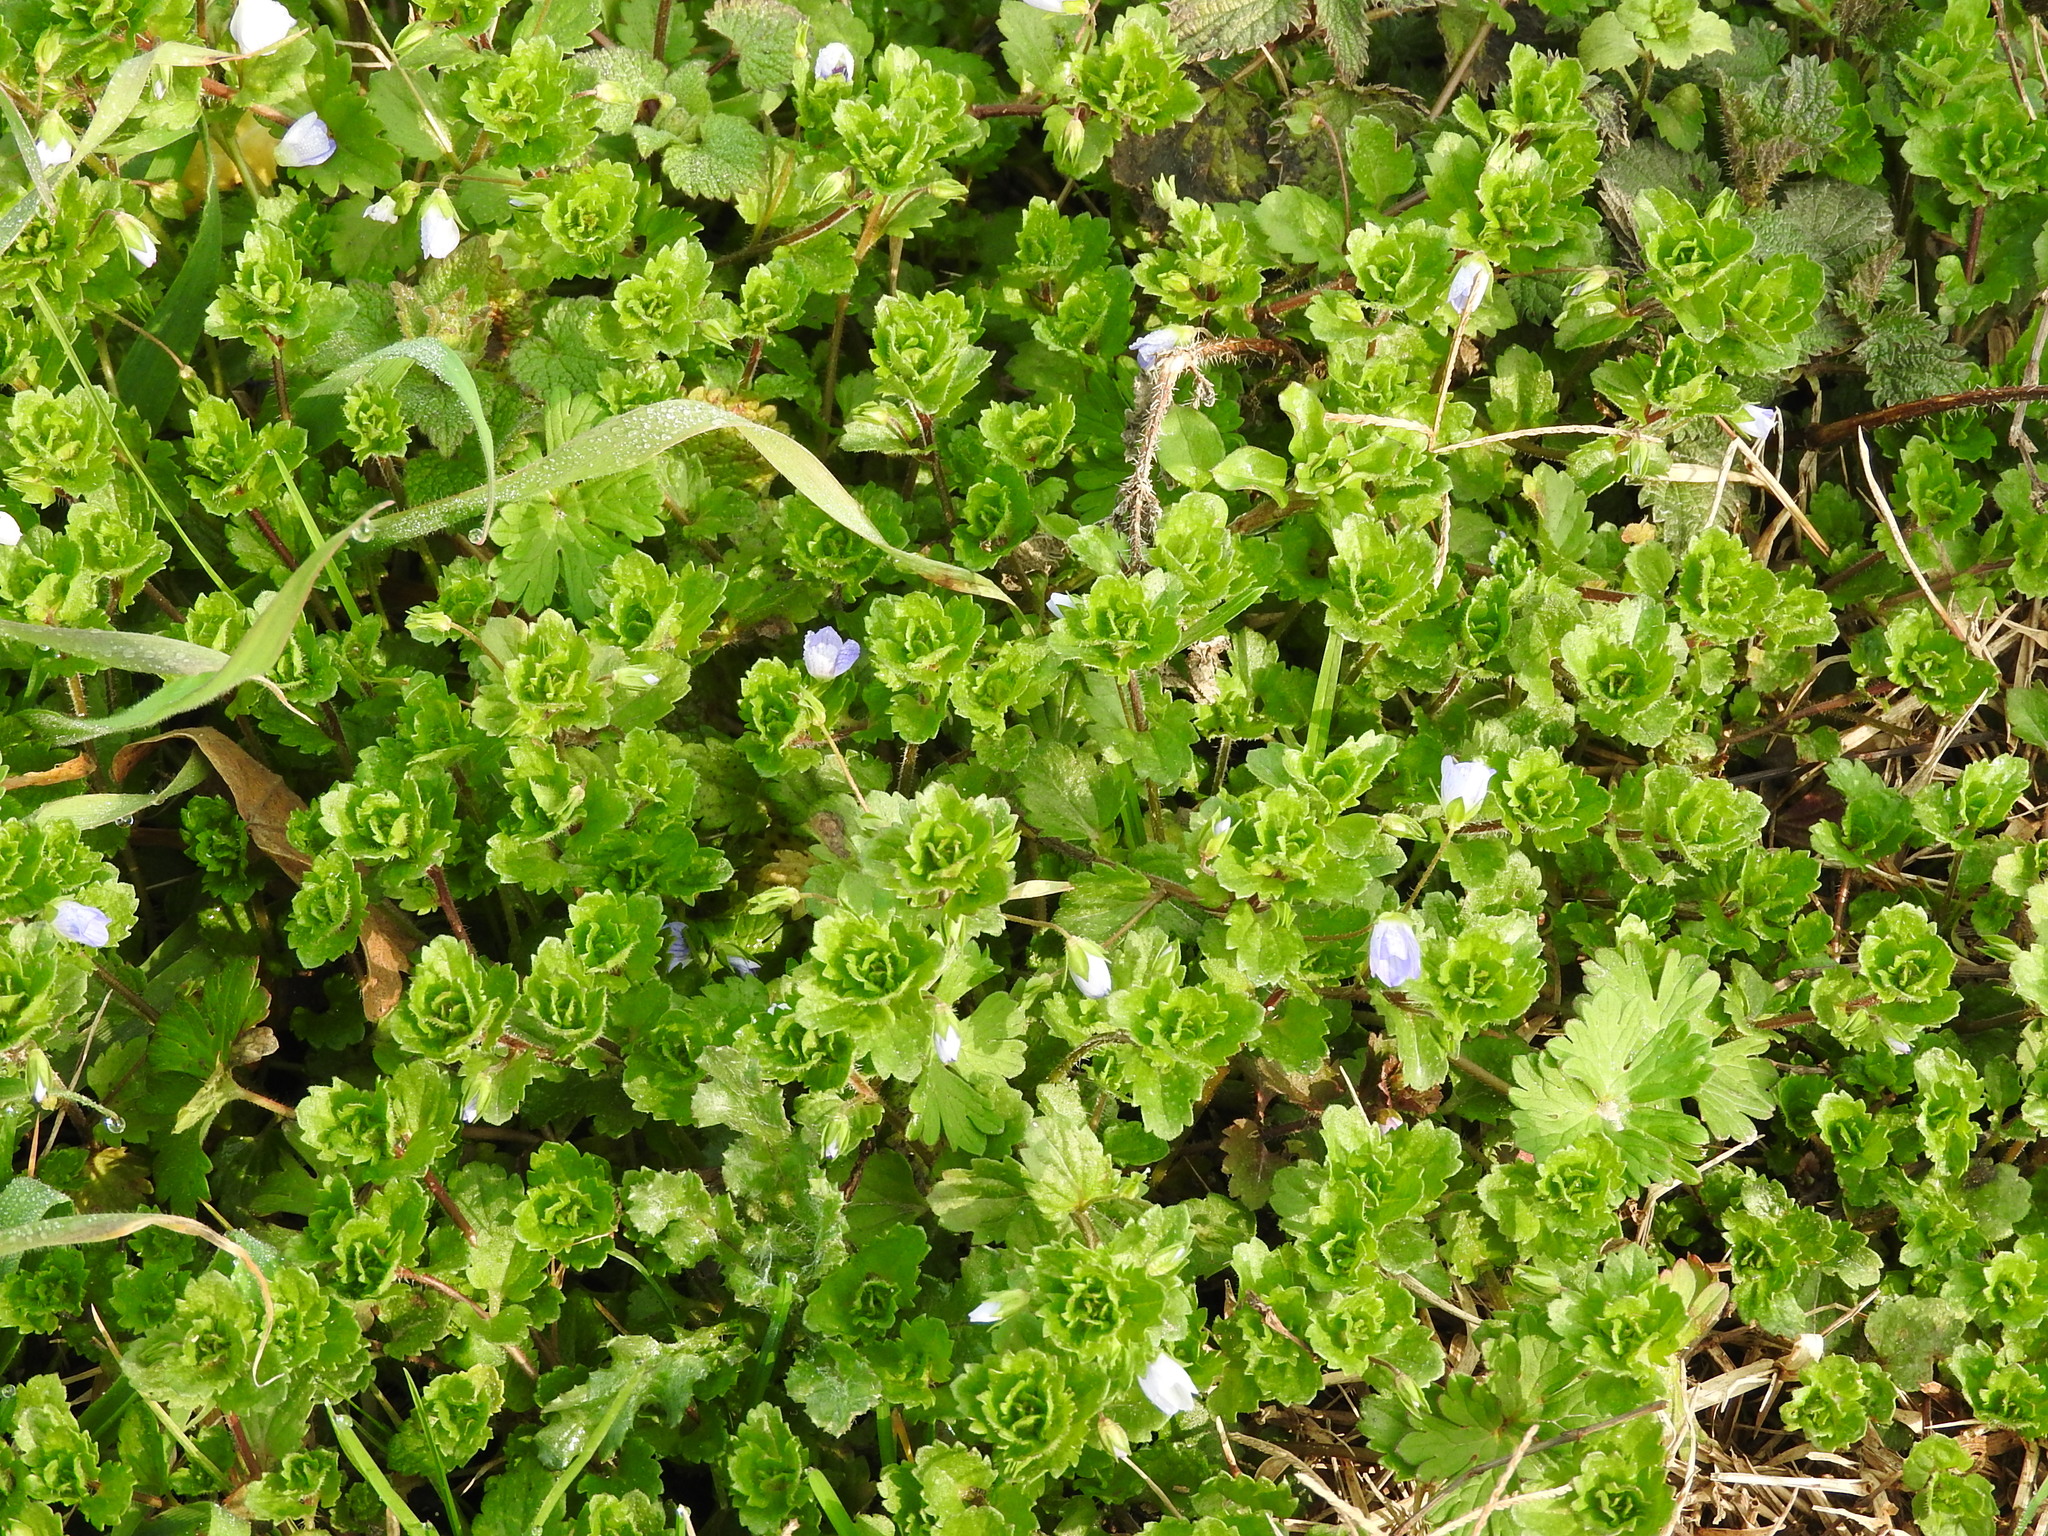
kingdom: Plantae
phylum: Tracheophyta
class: Magnoliopsida
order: Lamiales
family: Plantaginaceae
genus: Veronica
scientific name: Veronica persica
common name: Common field-speedwell
